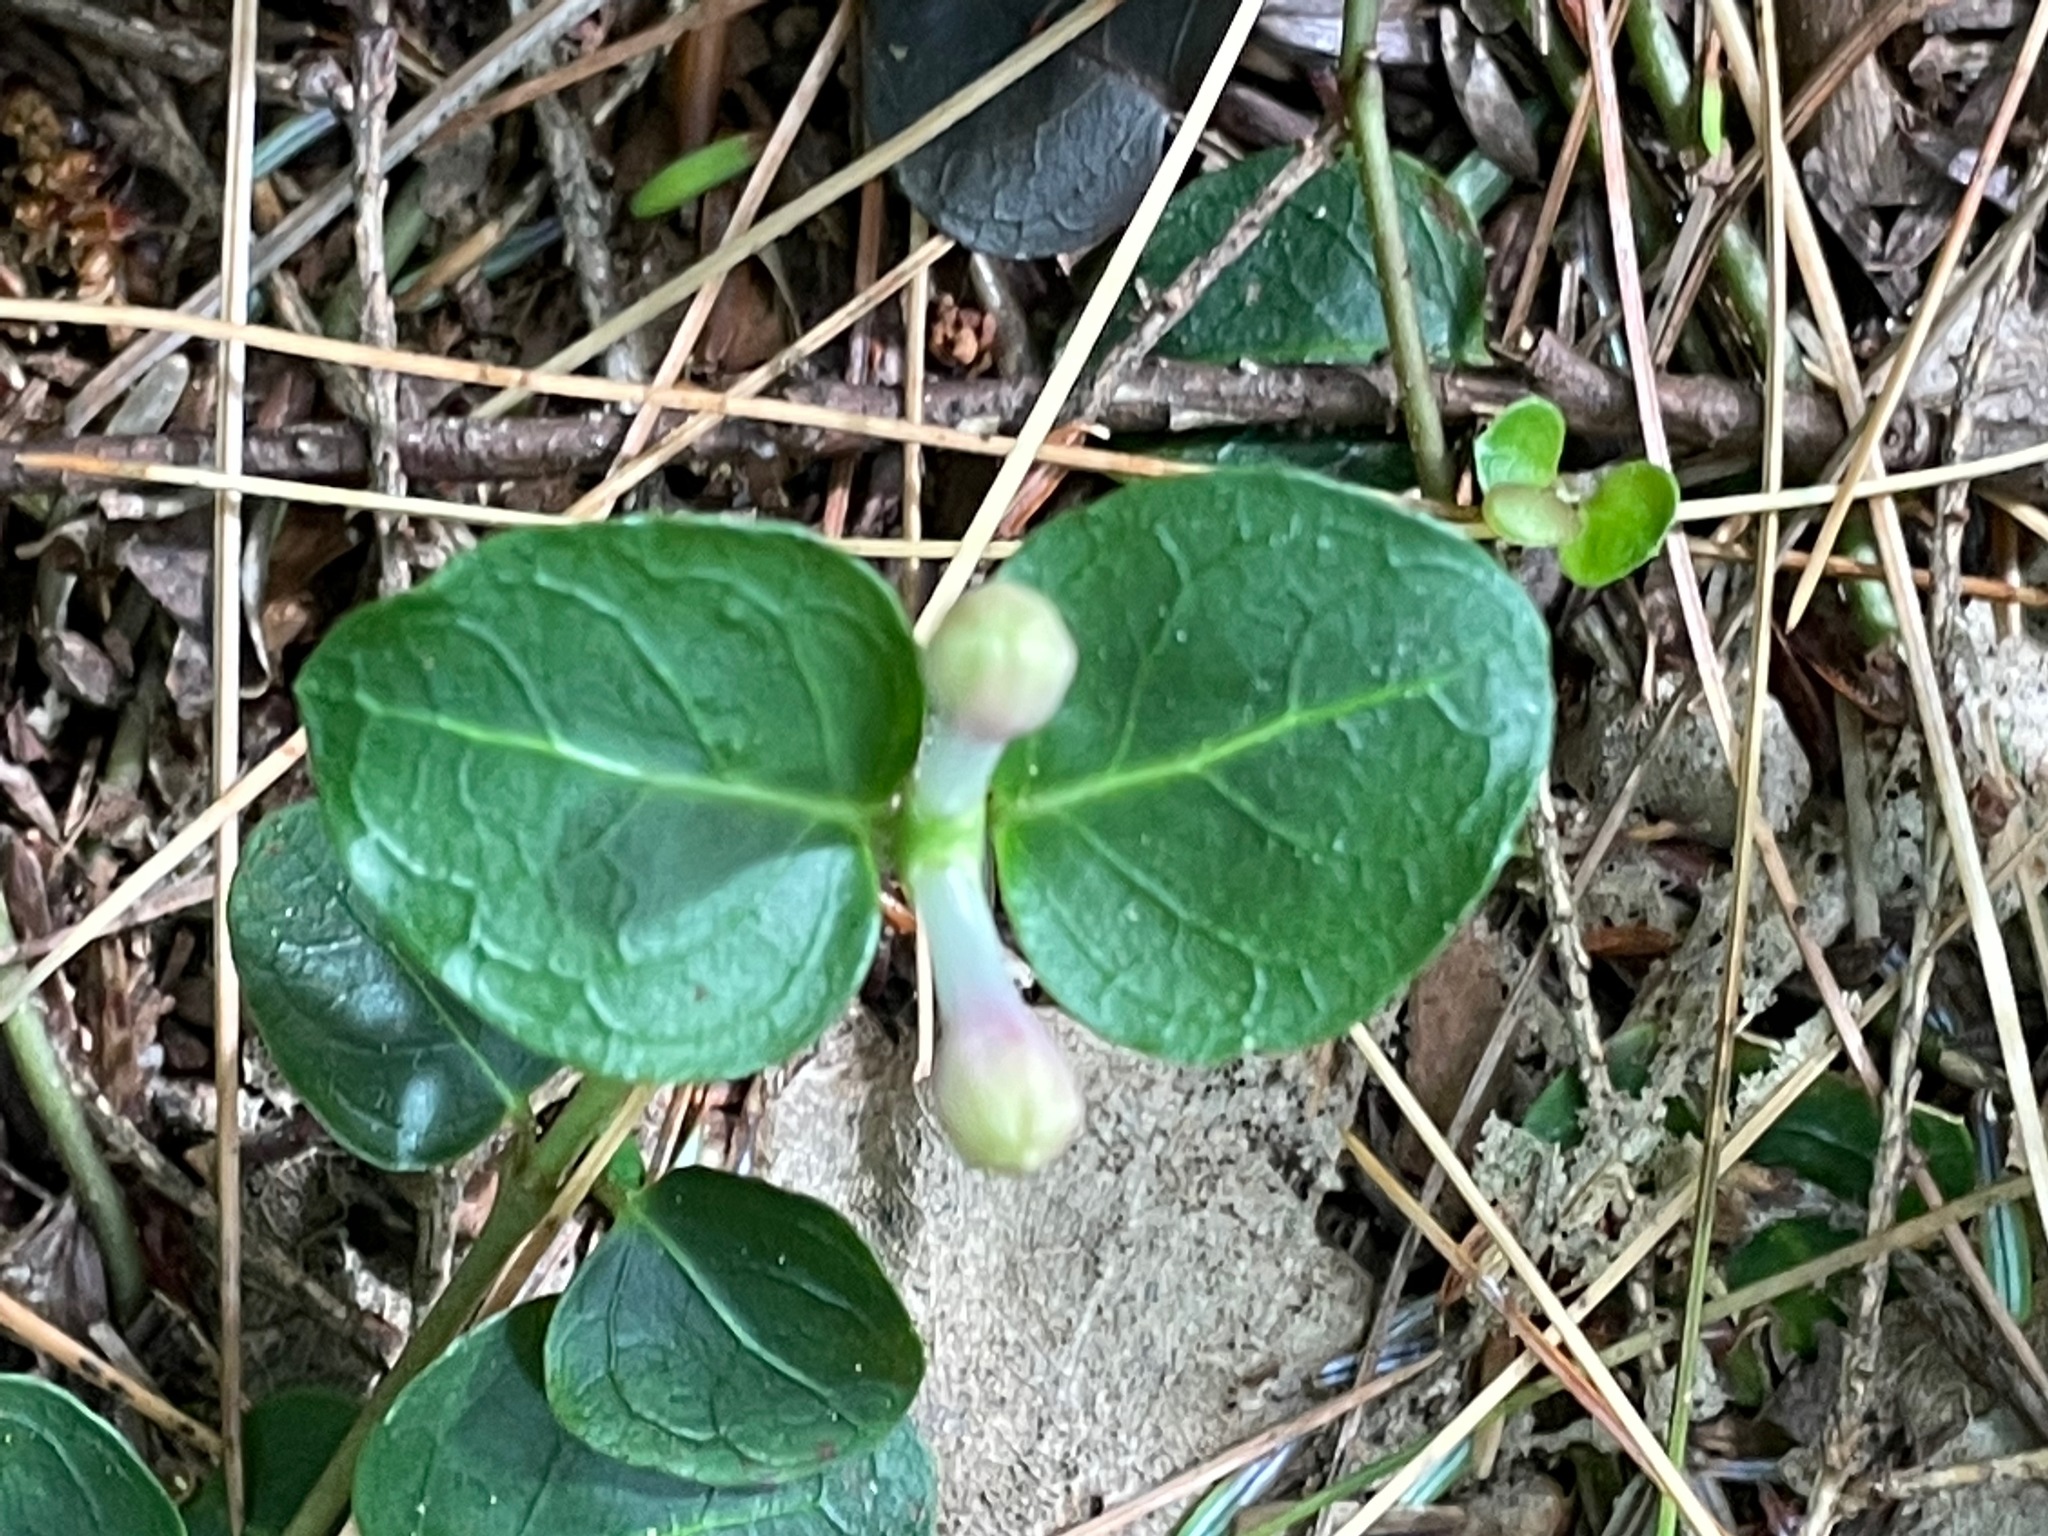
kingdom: Plantae
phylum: Tracheophyta
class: Magnoliopsida
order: Gentianales
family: Rubiaceae
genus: Mitchella
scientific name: Mitchella repens
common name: Partridge-berry
